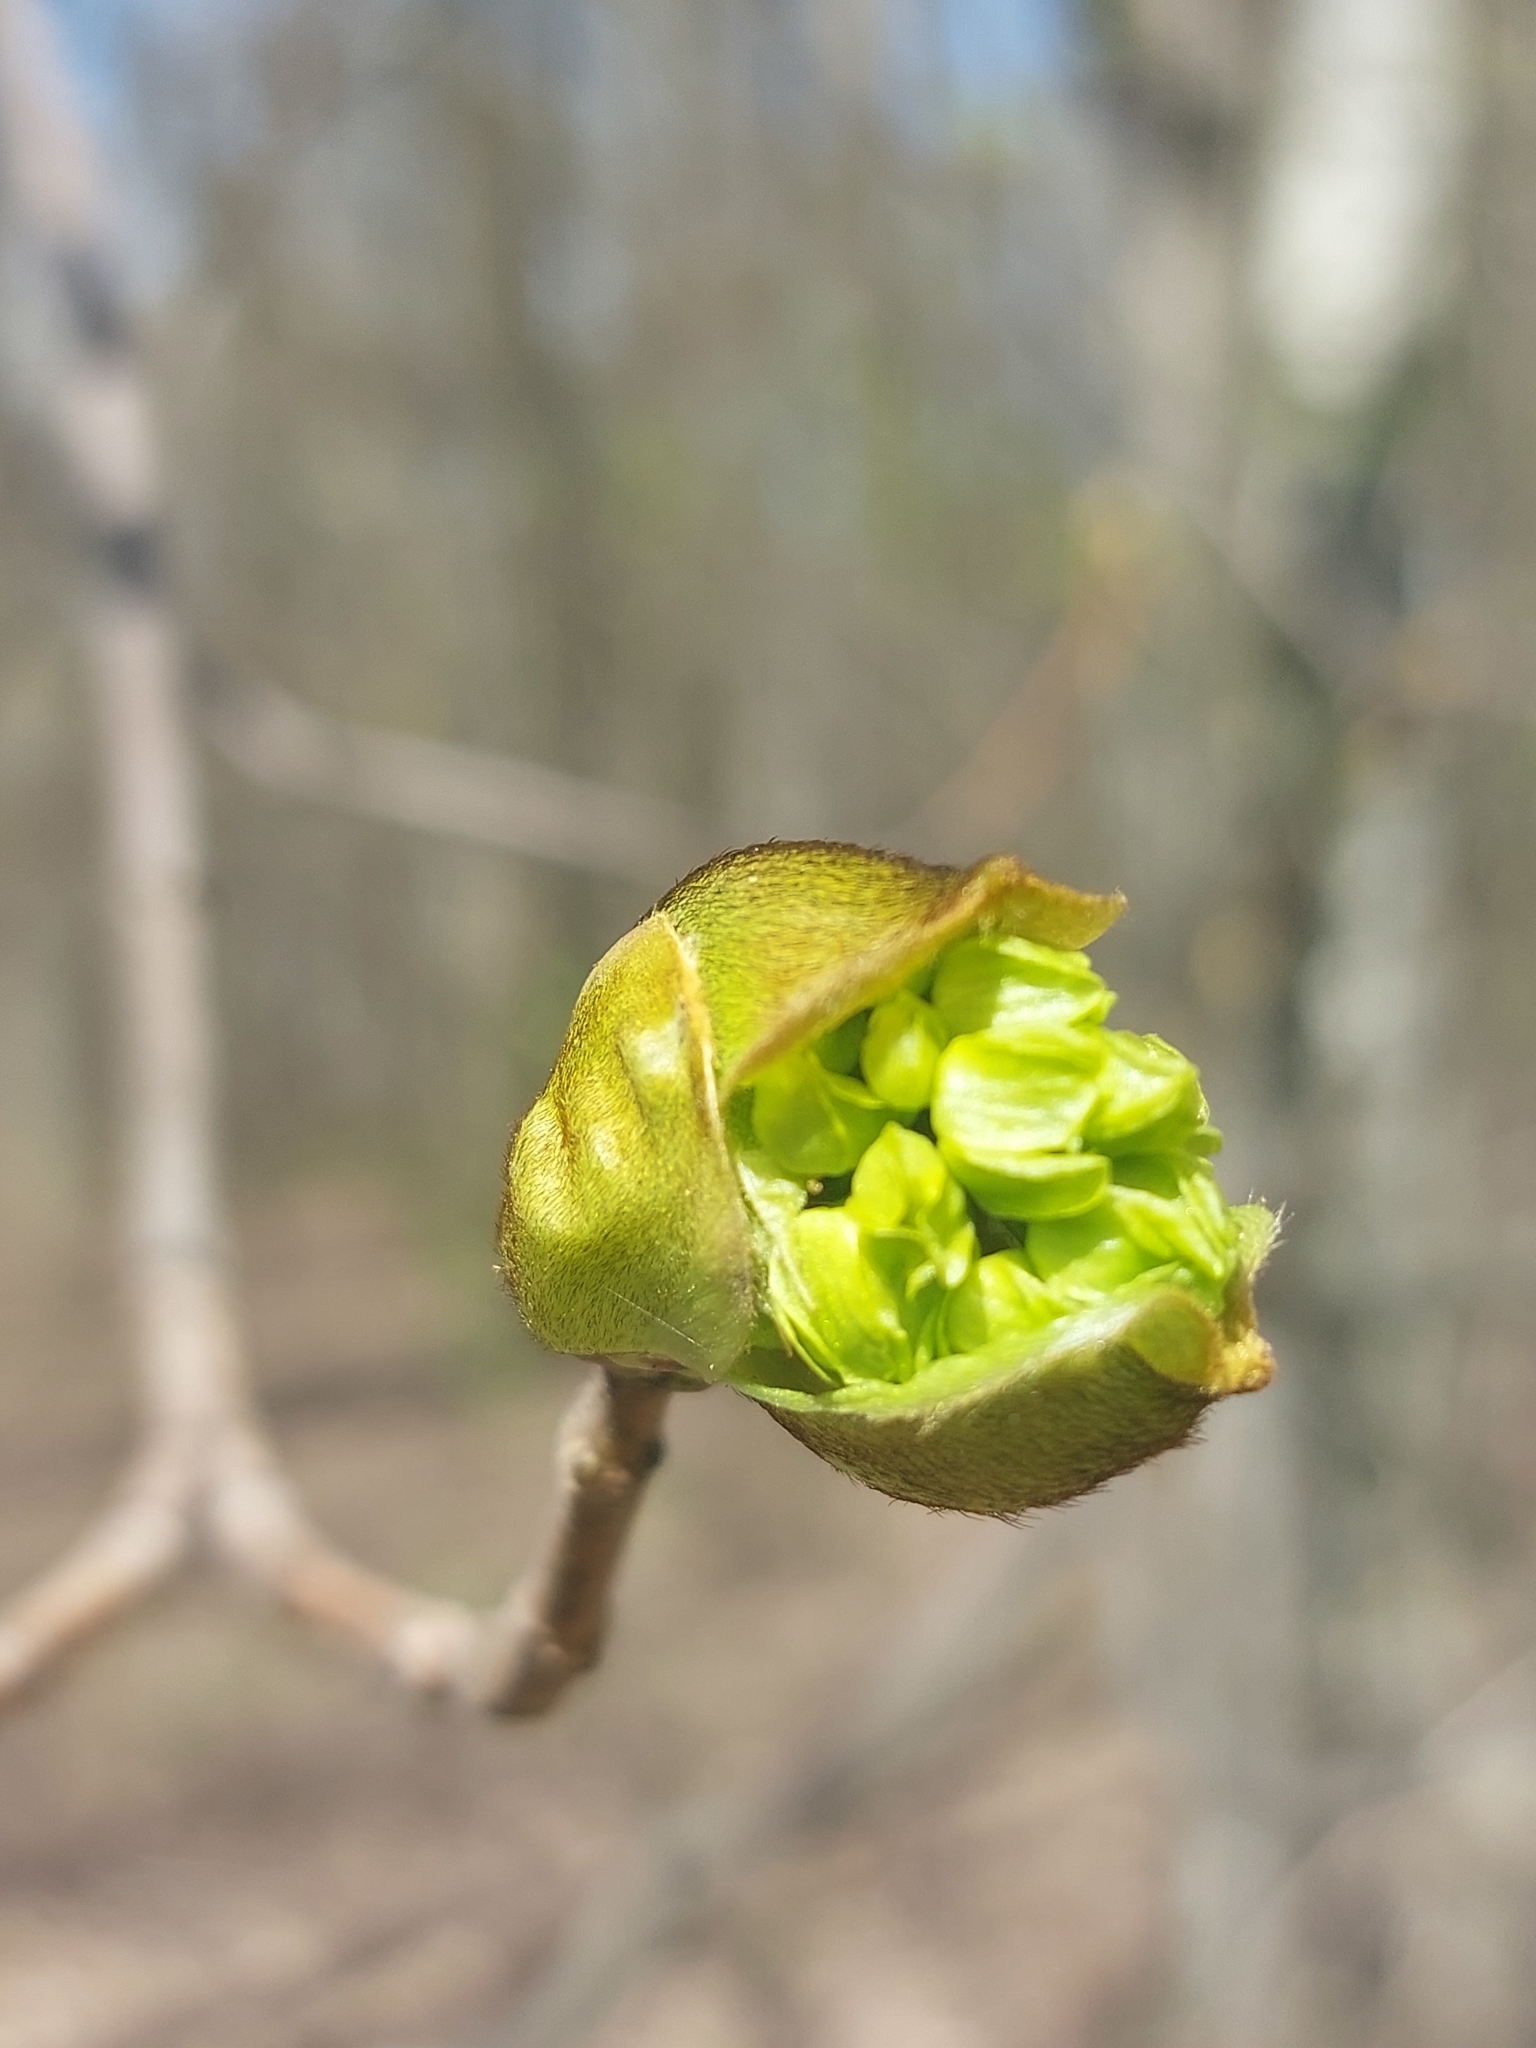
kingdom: Plantae
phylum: Tracheophyta
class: Magnoliopsida
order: Sapindales
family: Sapindaceae
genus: Acer
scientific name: Acer platanoides
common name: Norway maple
